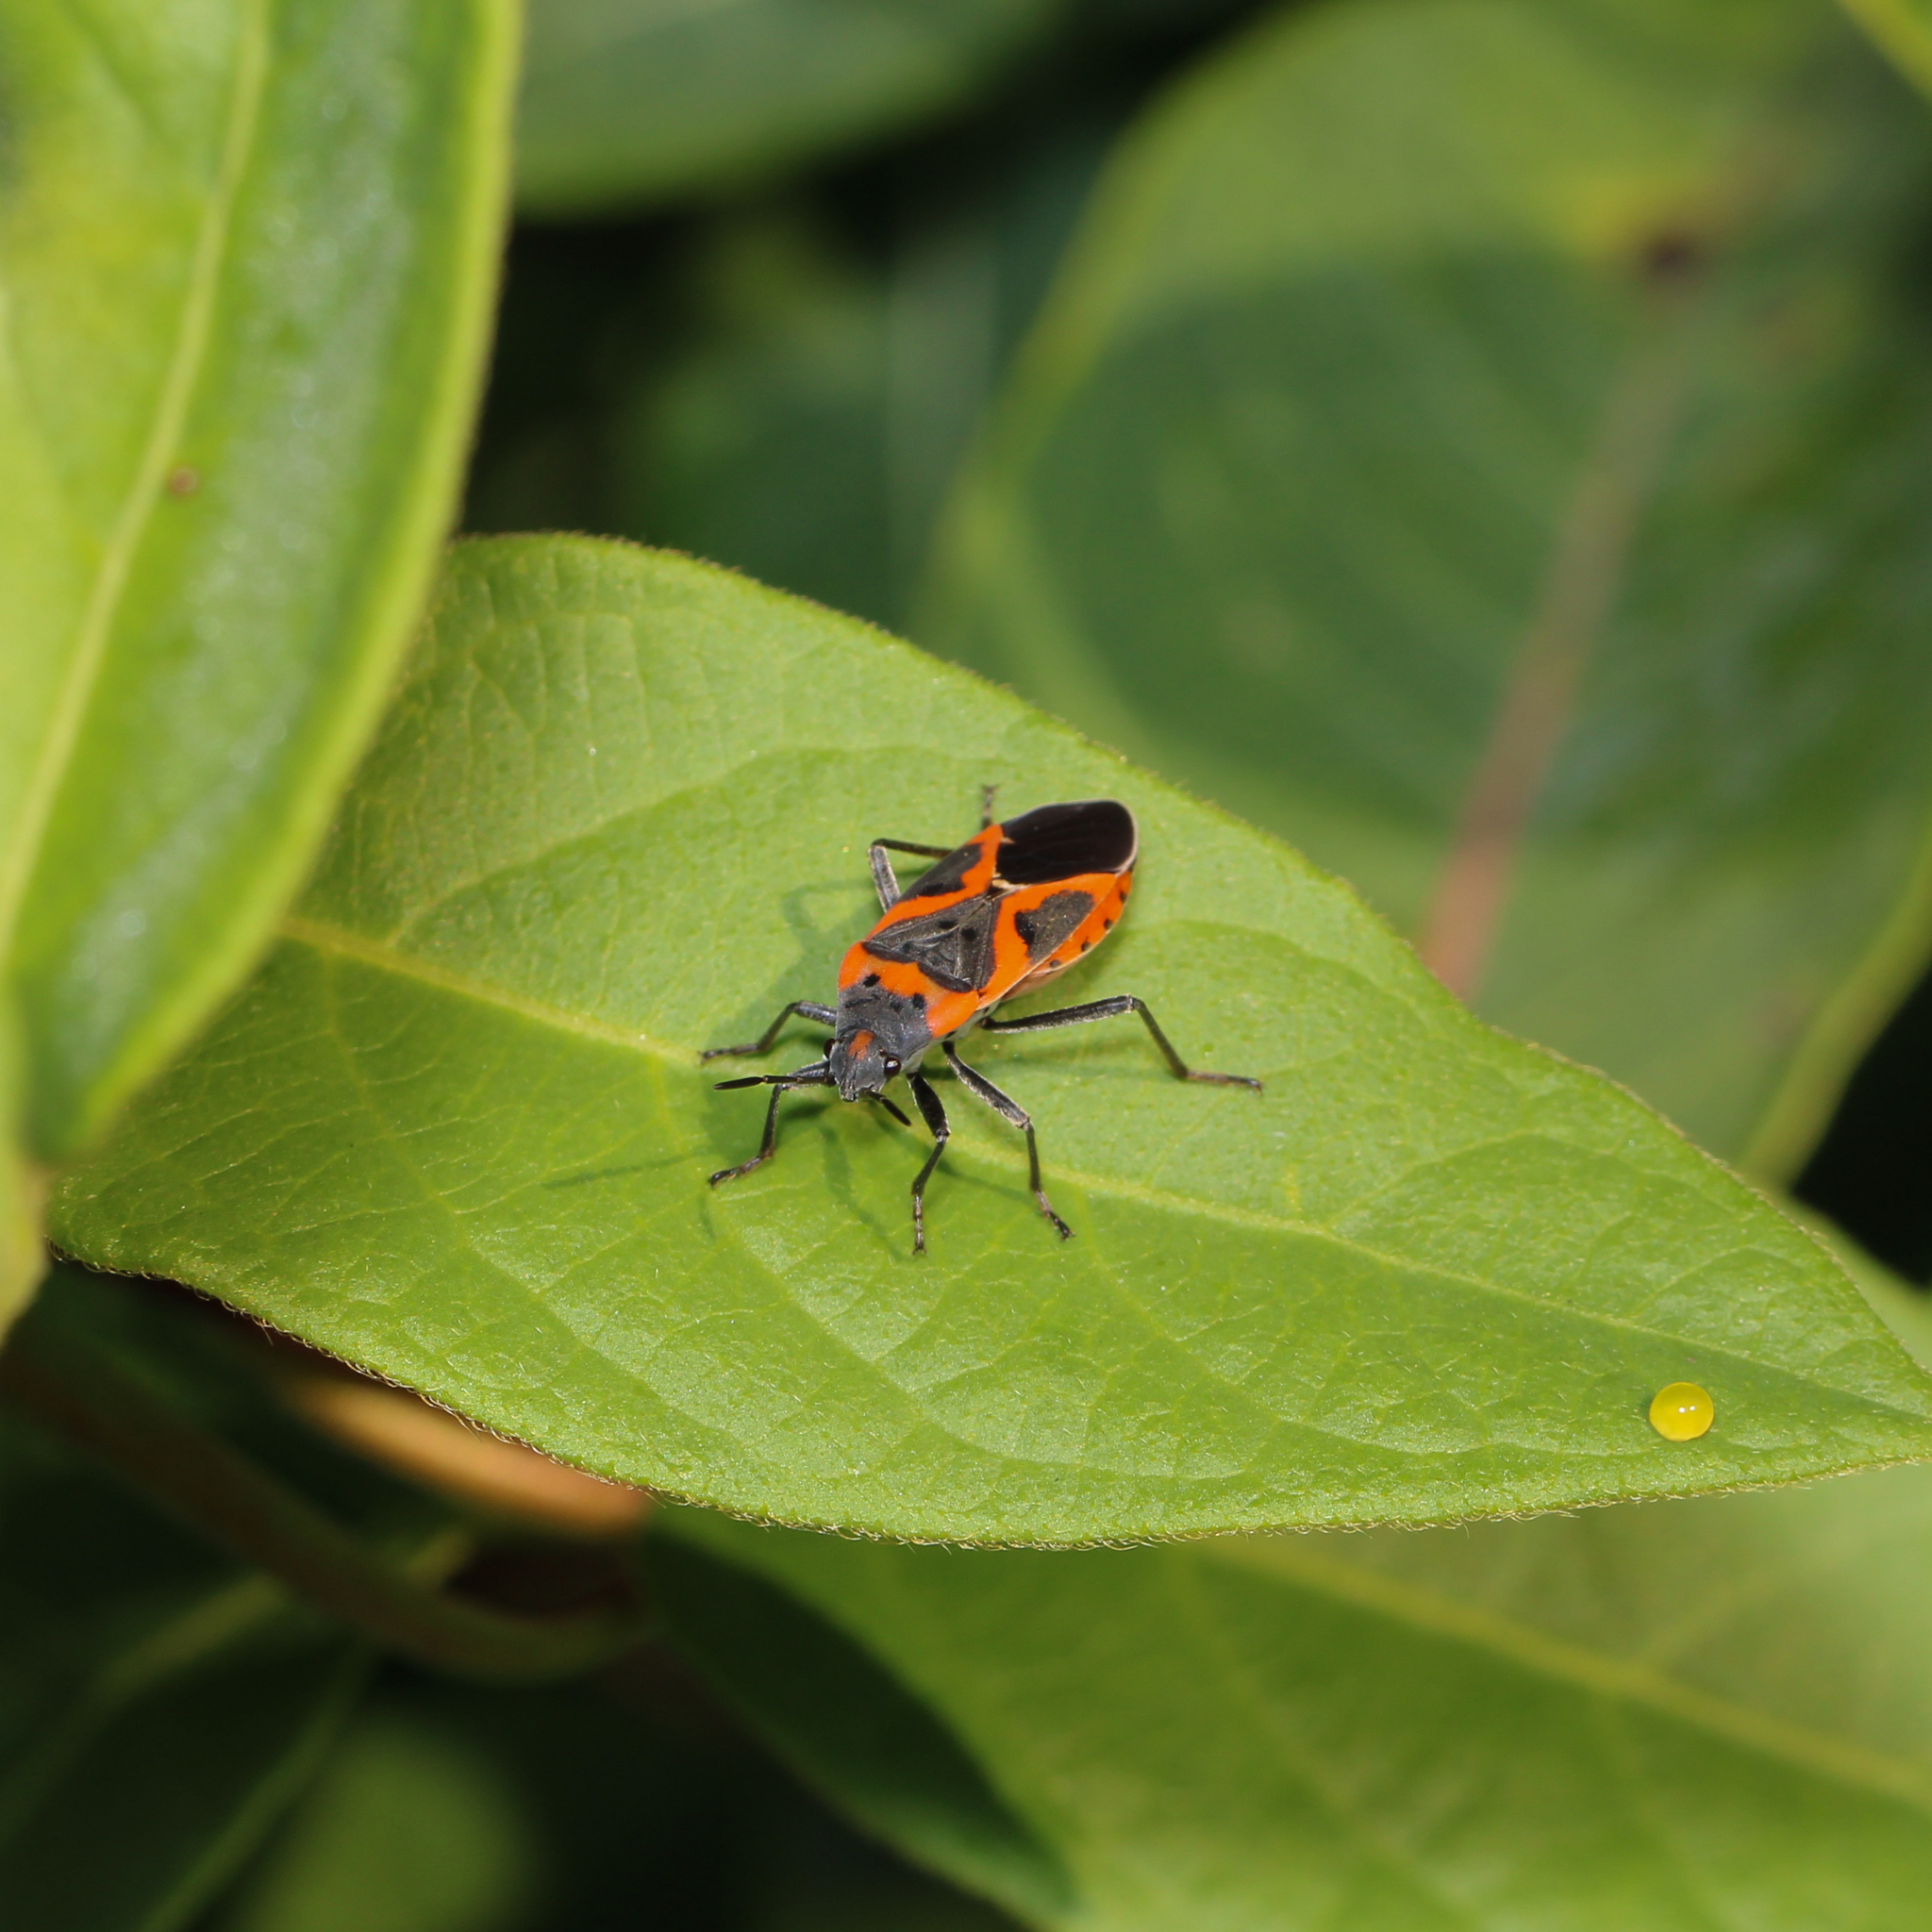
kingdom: Animalia
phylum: Arthropoda
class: Insecta
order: Hemiptera
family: Lygaeidae
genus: Lygaeus
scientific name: Lygaeus kalmii
